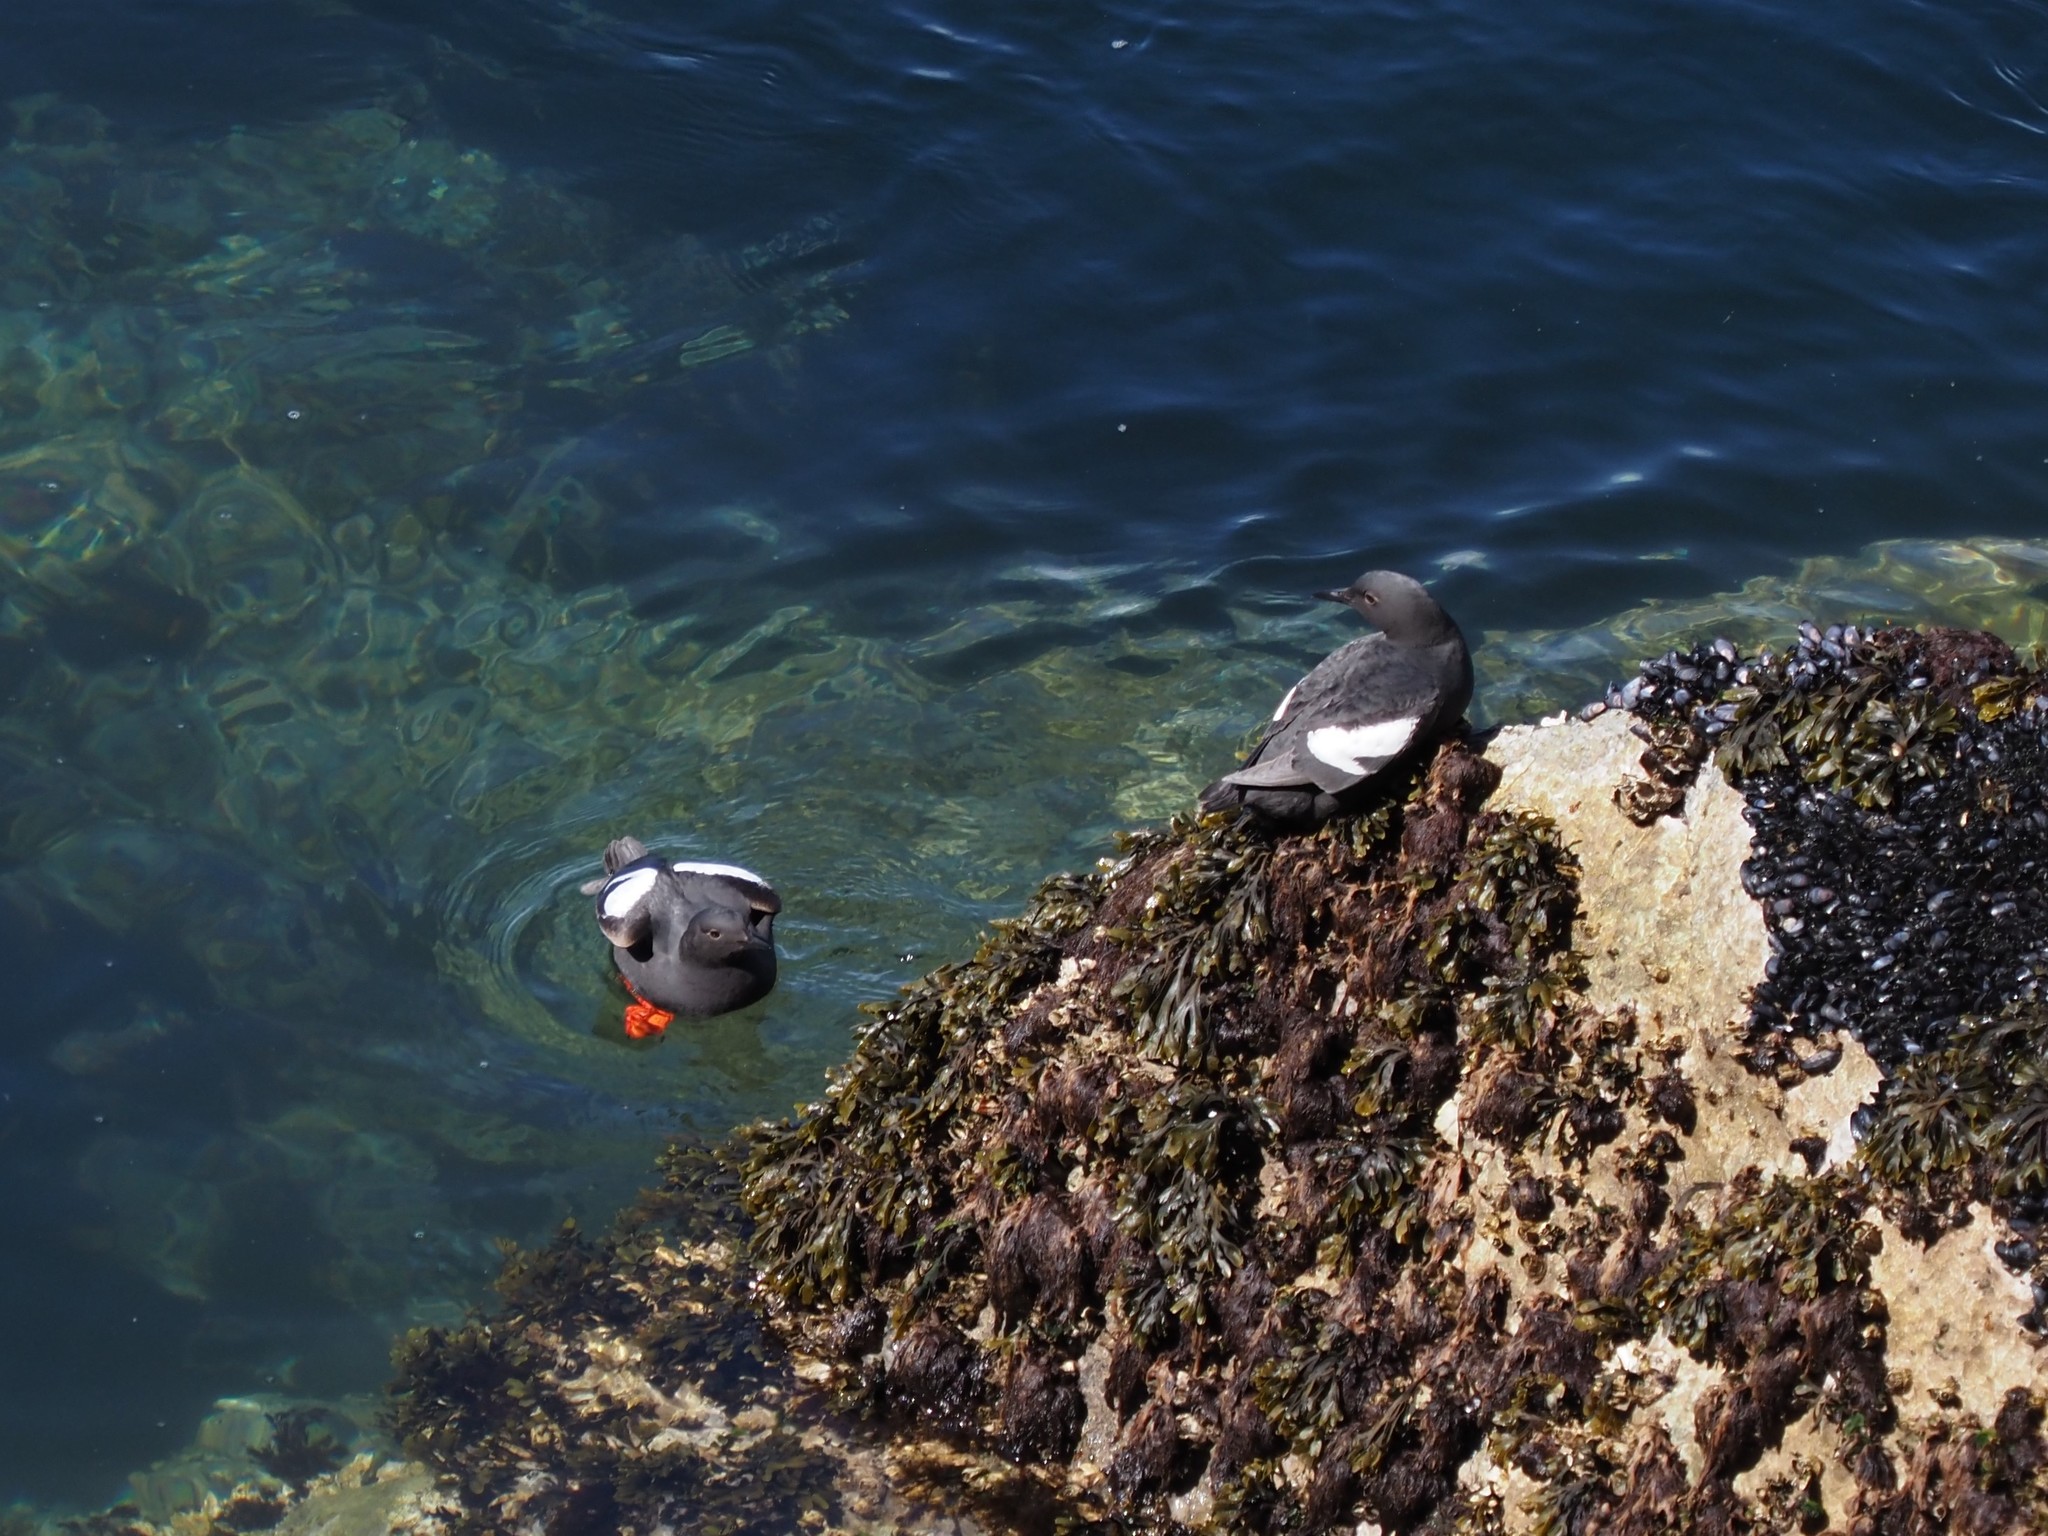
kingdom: Animalia
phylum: Chordata
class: Aves
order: Charadriiformes
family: Alcidae
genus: Cepphus
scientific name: Cepphus columba
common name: Pigeon guillemot
